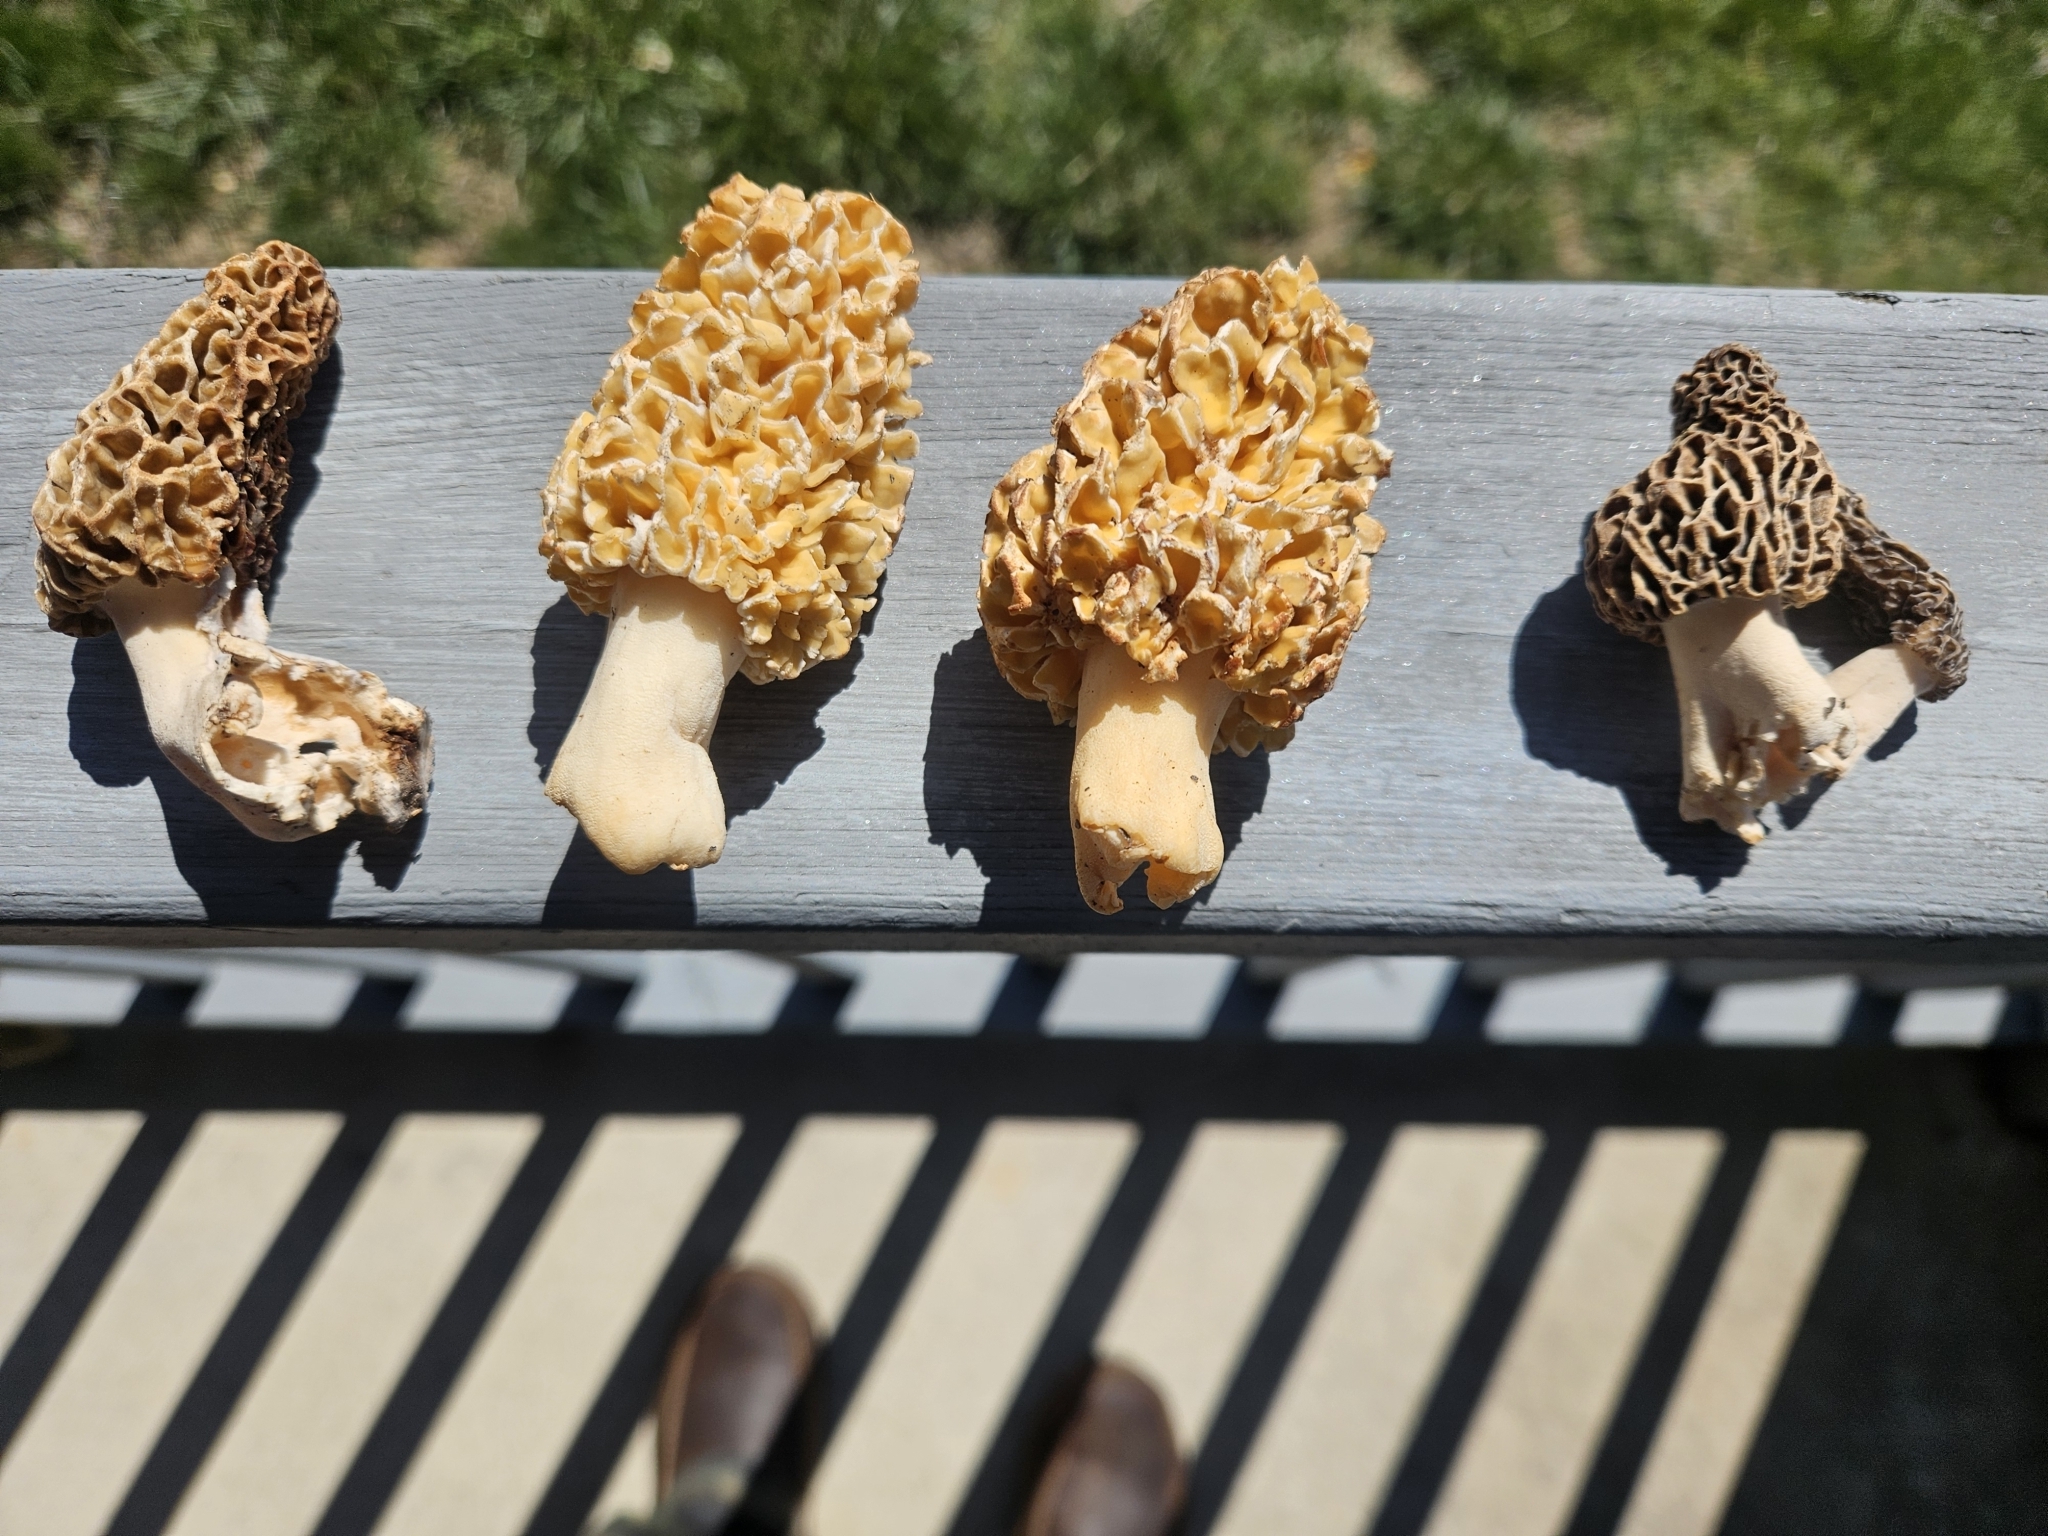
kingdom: Fungi
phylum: Ascomycota
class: Pezizomycetes
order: Pezizales
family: Morchellaceae
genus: Morchella
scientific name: Morchella americana
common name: White morel
